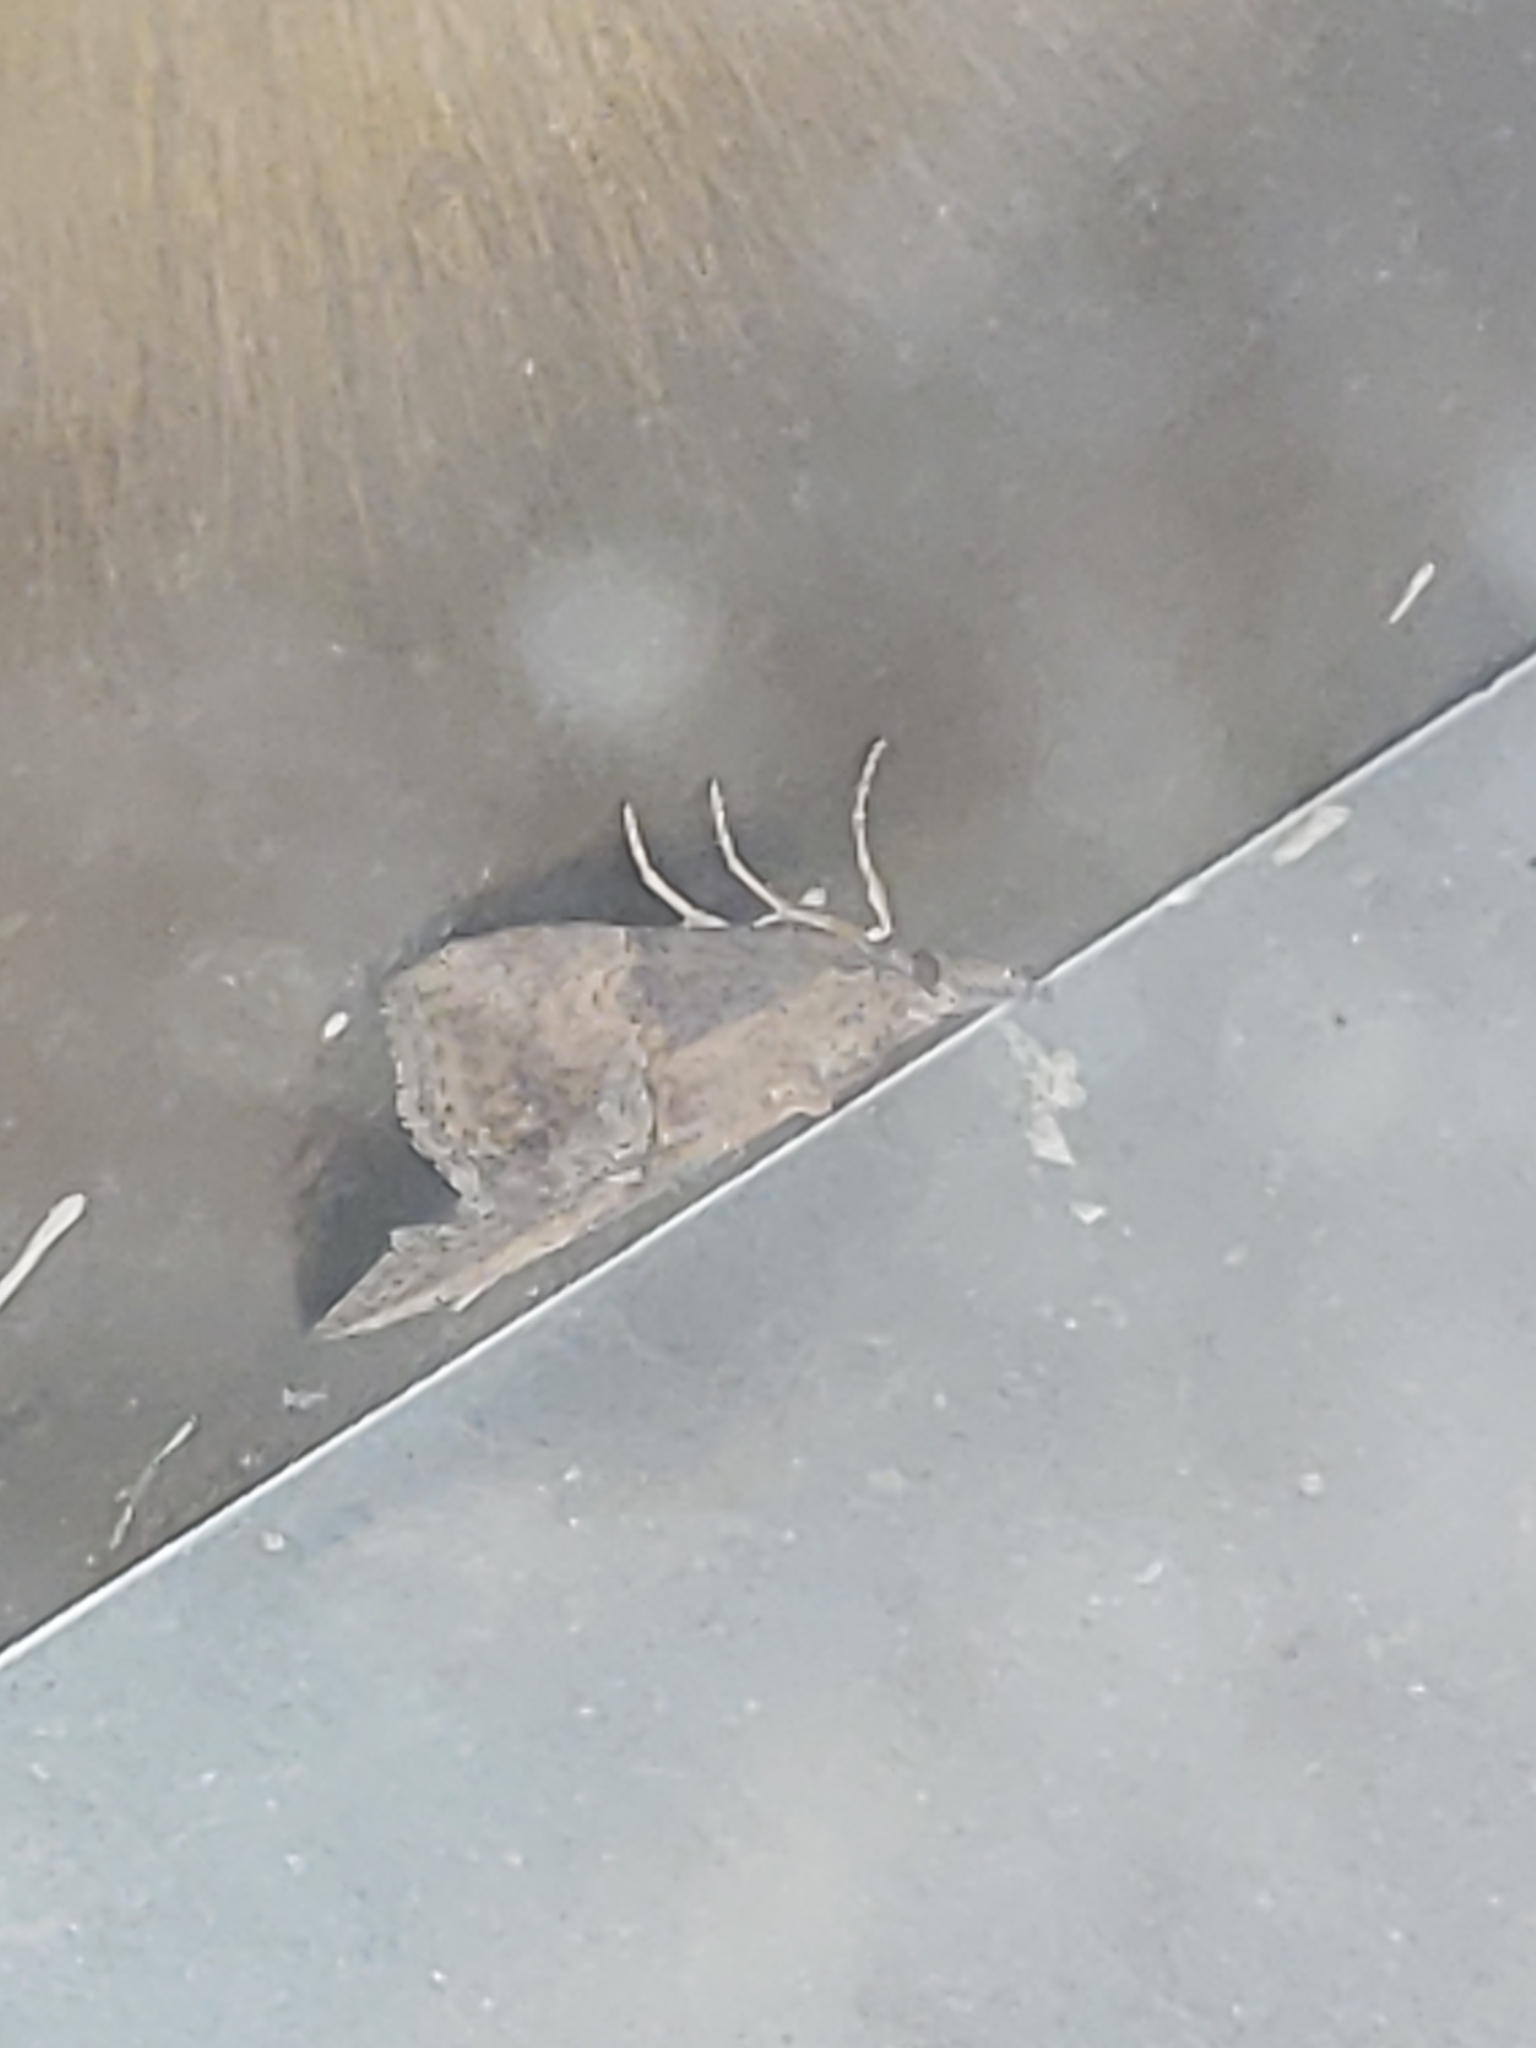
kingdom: Animalia
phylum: Arthropoda
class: Insecta
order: Lepidoptera
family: Erebidae
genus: Hypena
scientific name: Hypena scabra
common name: Green cloverworm
